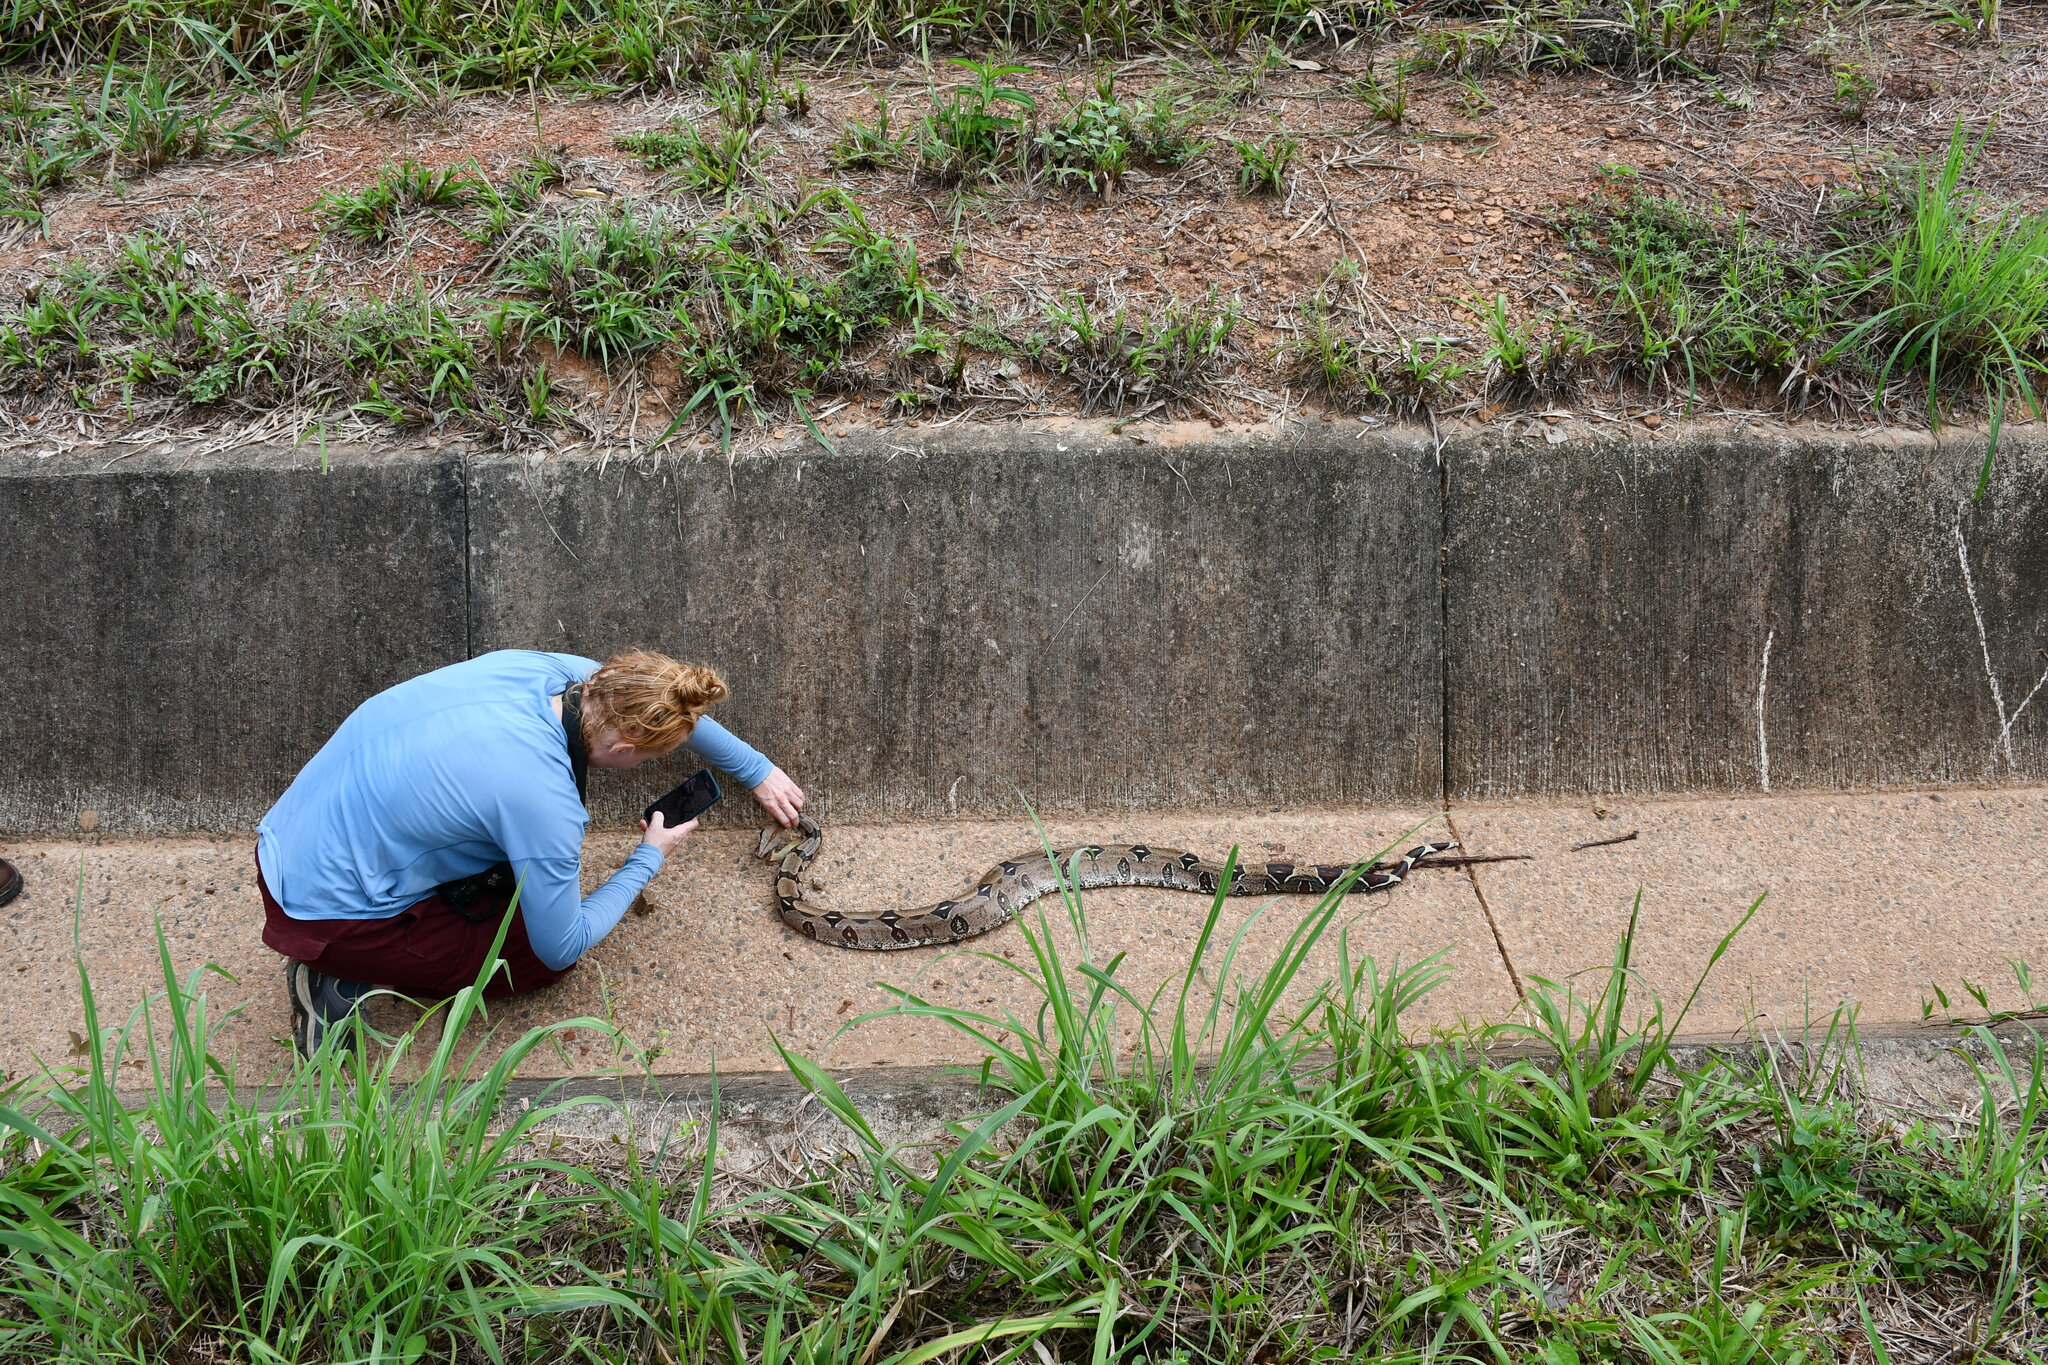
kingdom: Animalia
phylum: Chordata
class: Squamata
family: Boidae
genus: Boa
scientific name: Boa constrictor
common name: Boa constrictor
